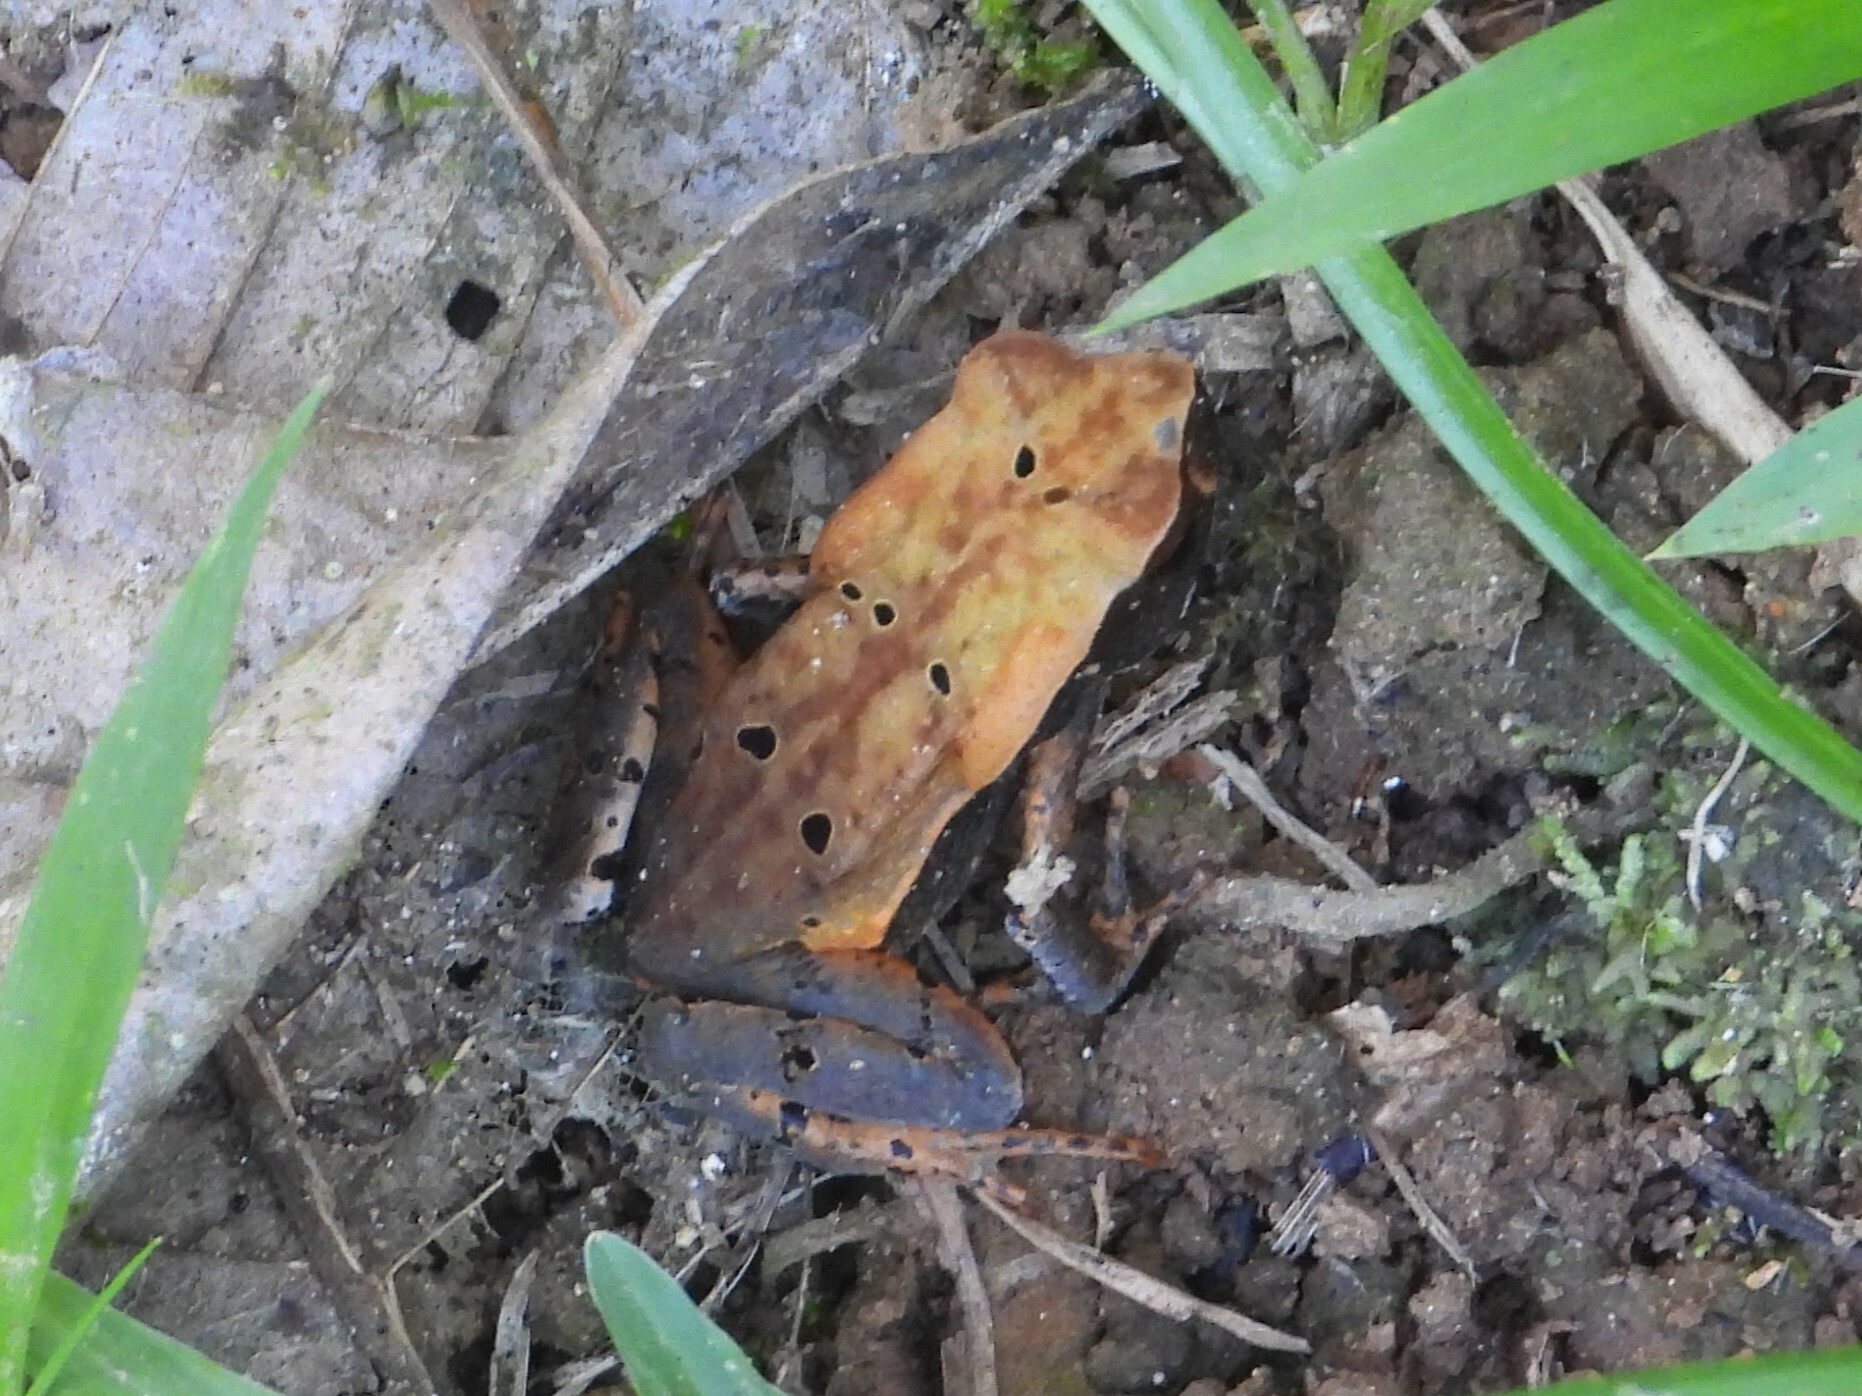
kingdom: Animalia
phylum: Chordata
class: Amphibia
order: Anura
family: Bufonidae
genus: Rhaebo
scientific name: Rhaebo haematiticus
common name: Truando toad
